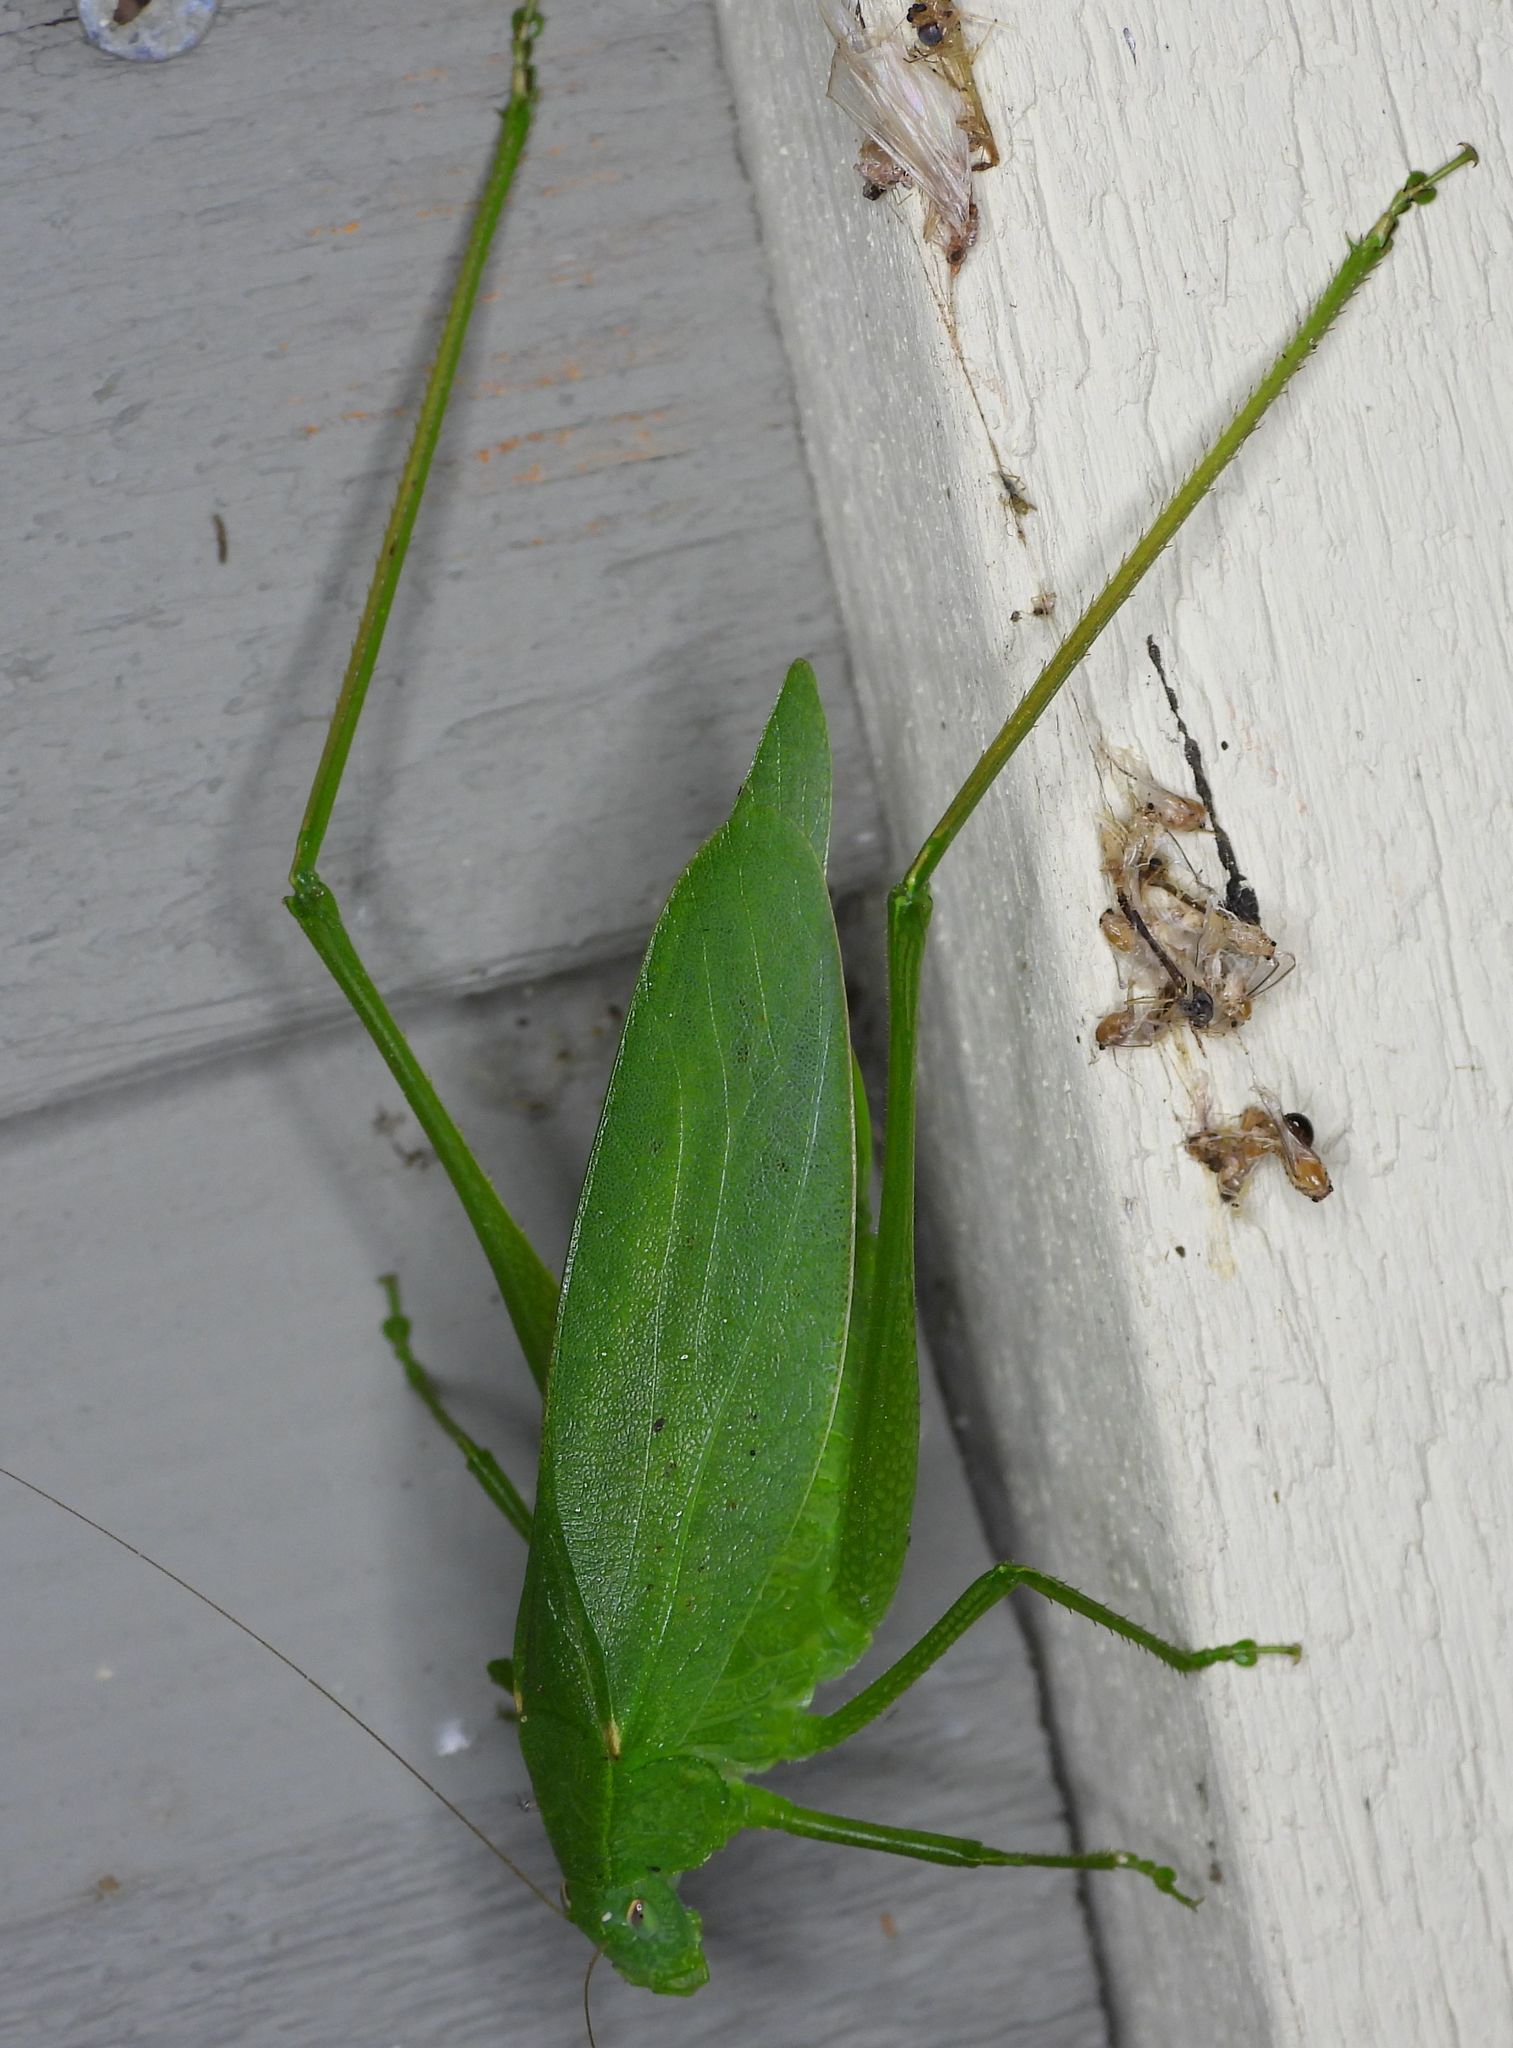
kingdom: Animalia
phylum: Arthropoda
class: Insecta
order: Orthoptera
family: Tettigoniidae
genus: Amblycorypha
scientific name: Amblycorypha oblongifolia
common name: Oblong-winged katydid
